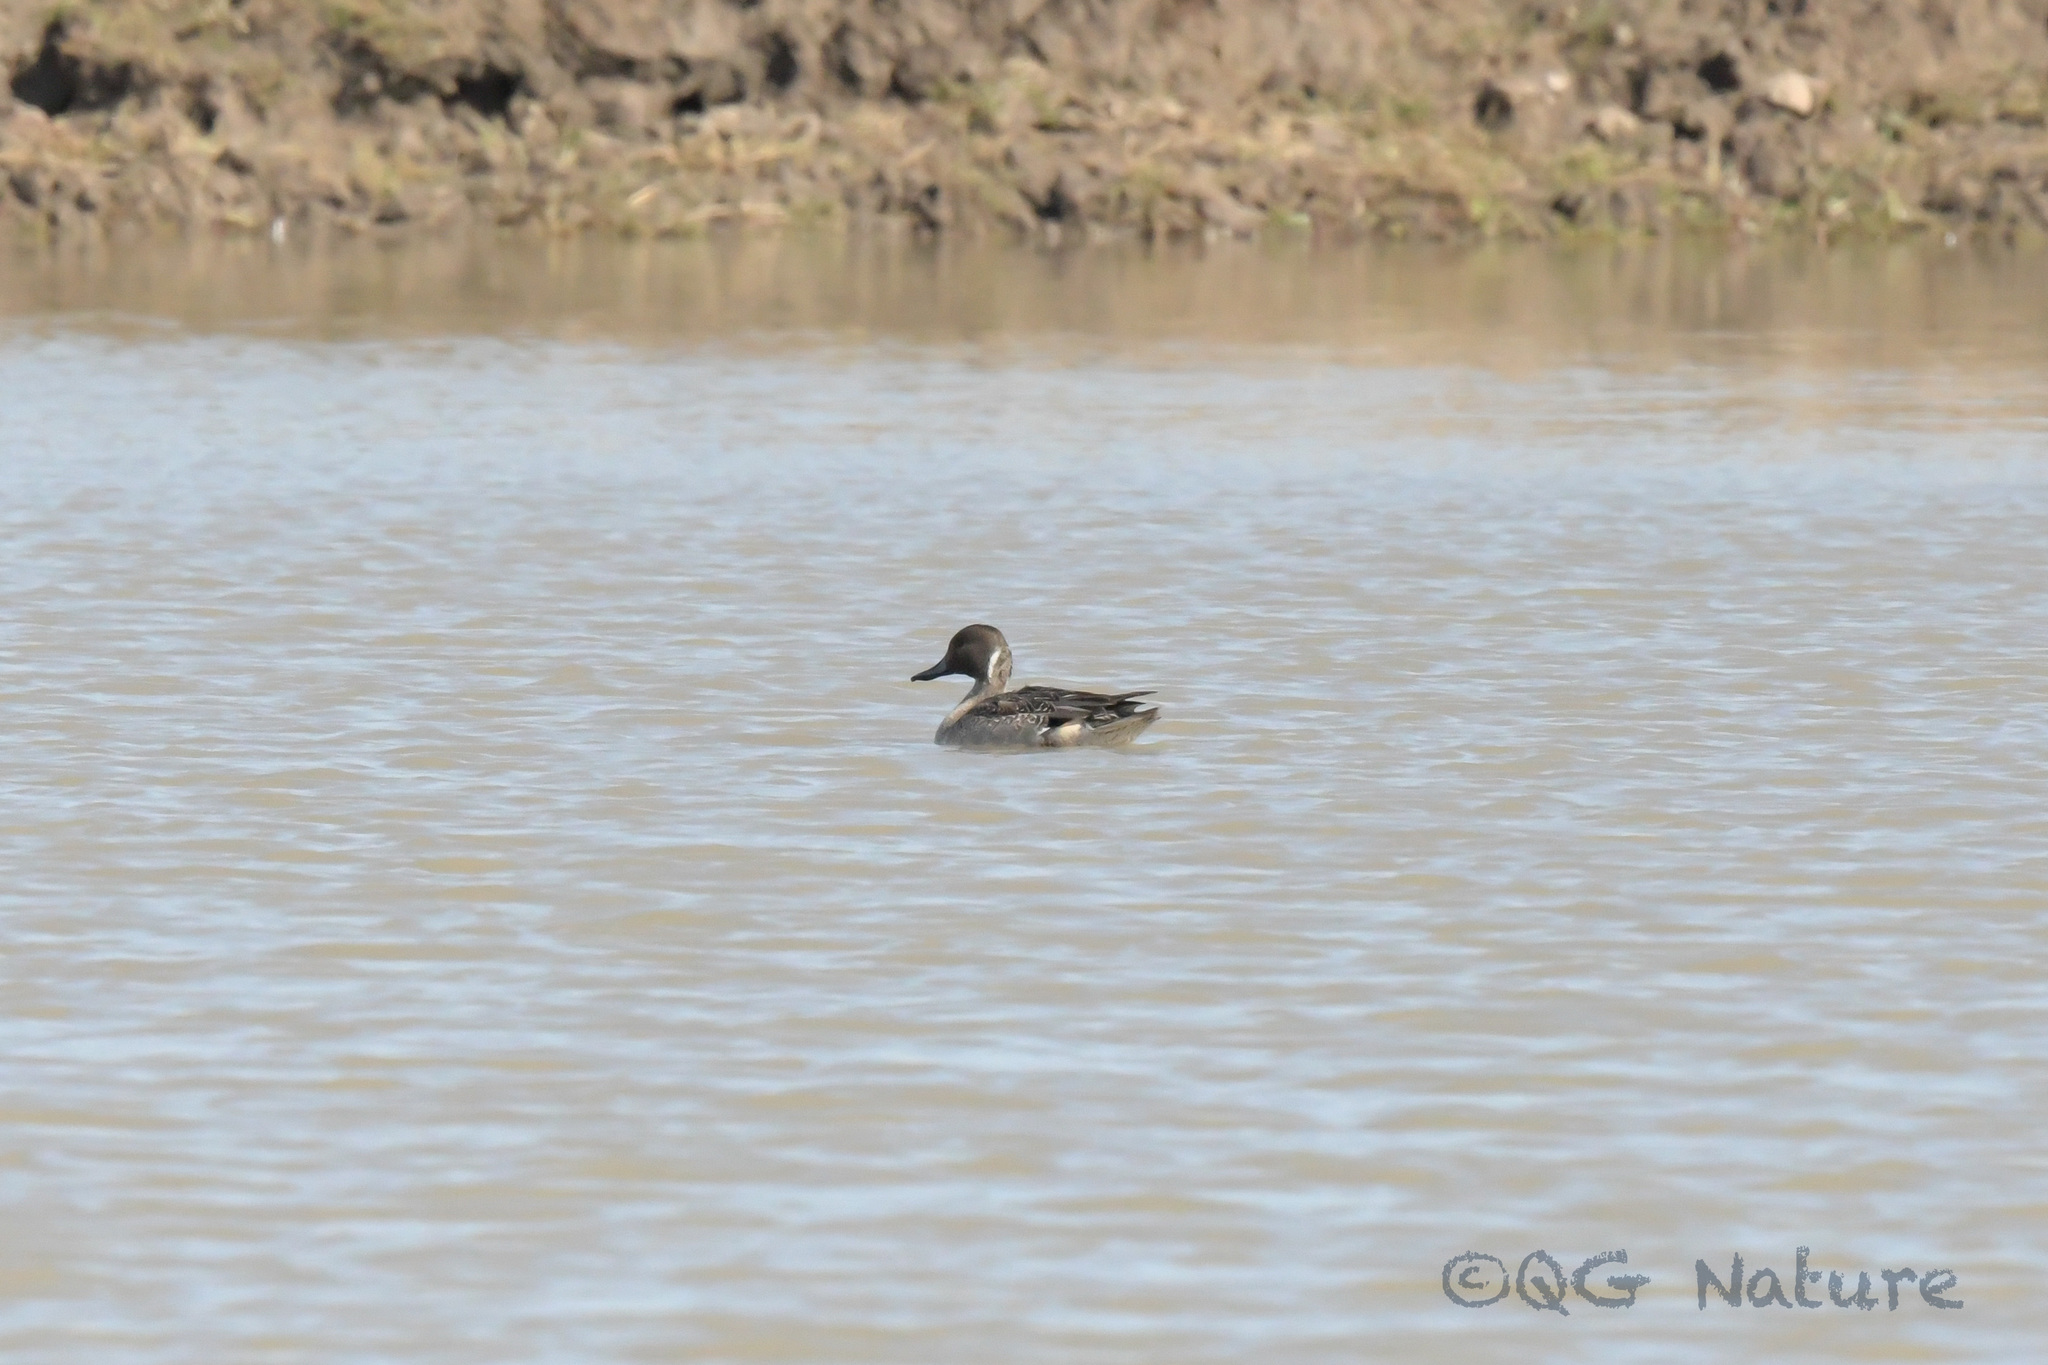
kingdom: Animalia
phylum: Chordata
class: Aves
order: Anseriformes
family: Anatidae
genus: Anas
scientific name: Anas acuta
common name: Northern pintail
